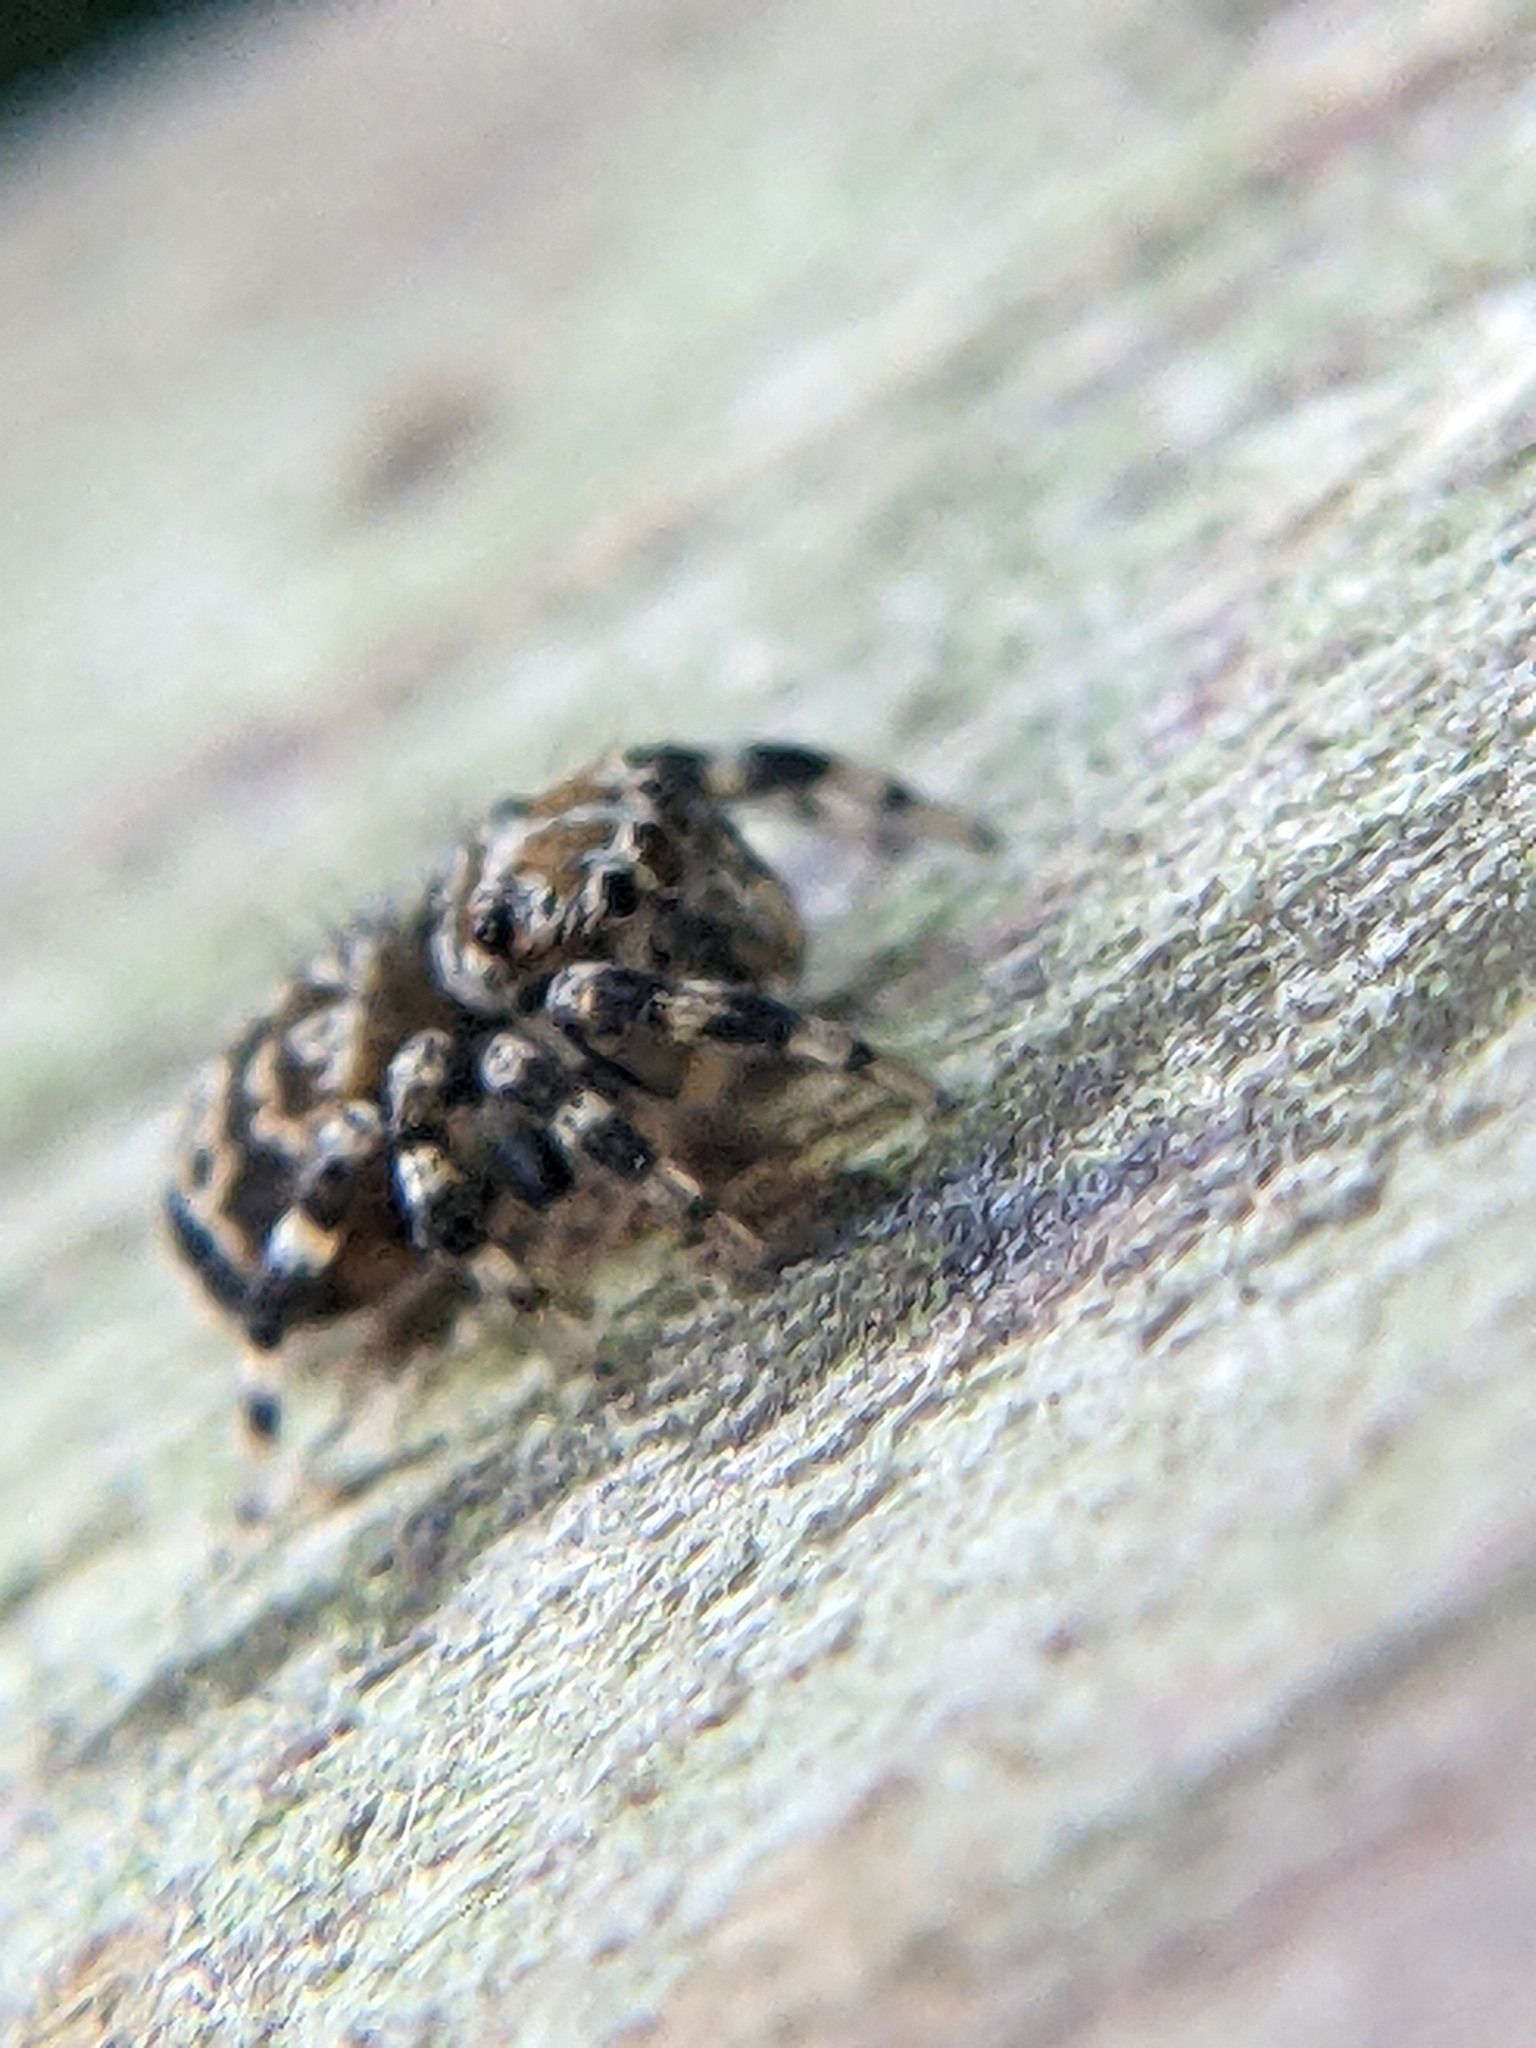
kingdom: Animalia
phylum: Arthropoda
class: Arachnida
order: Araneae
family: Salticidae
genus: Thorelliola
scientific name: Thorelliola ensifera
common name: Jumping spider
